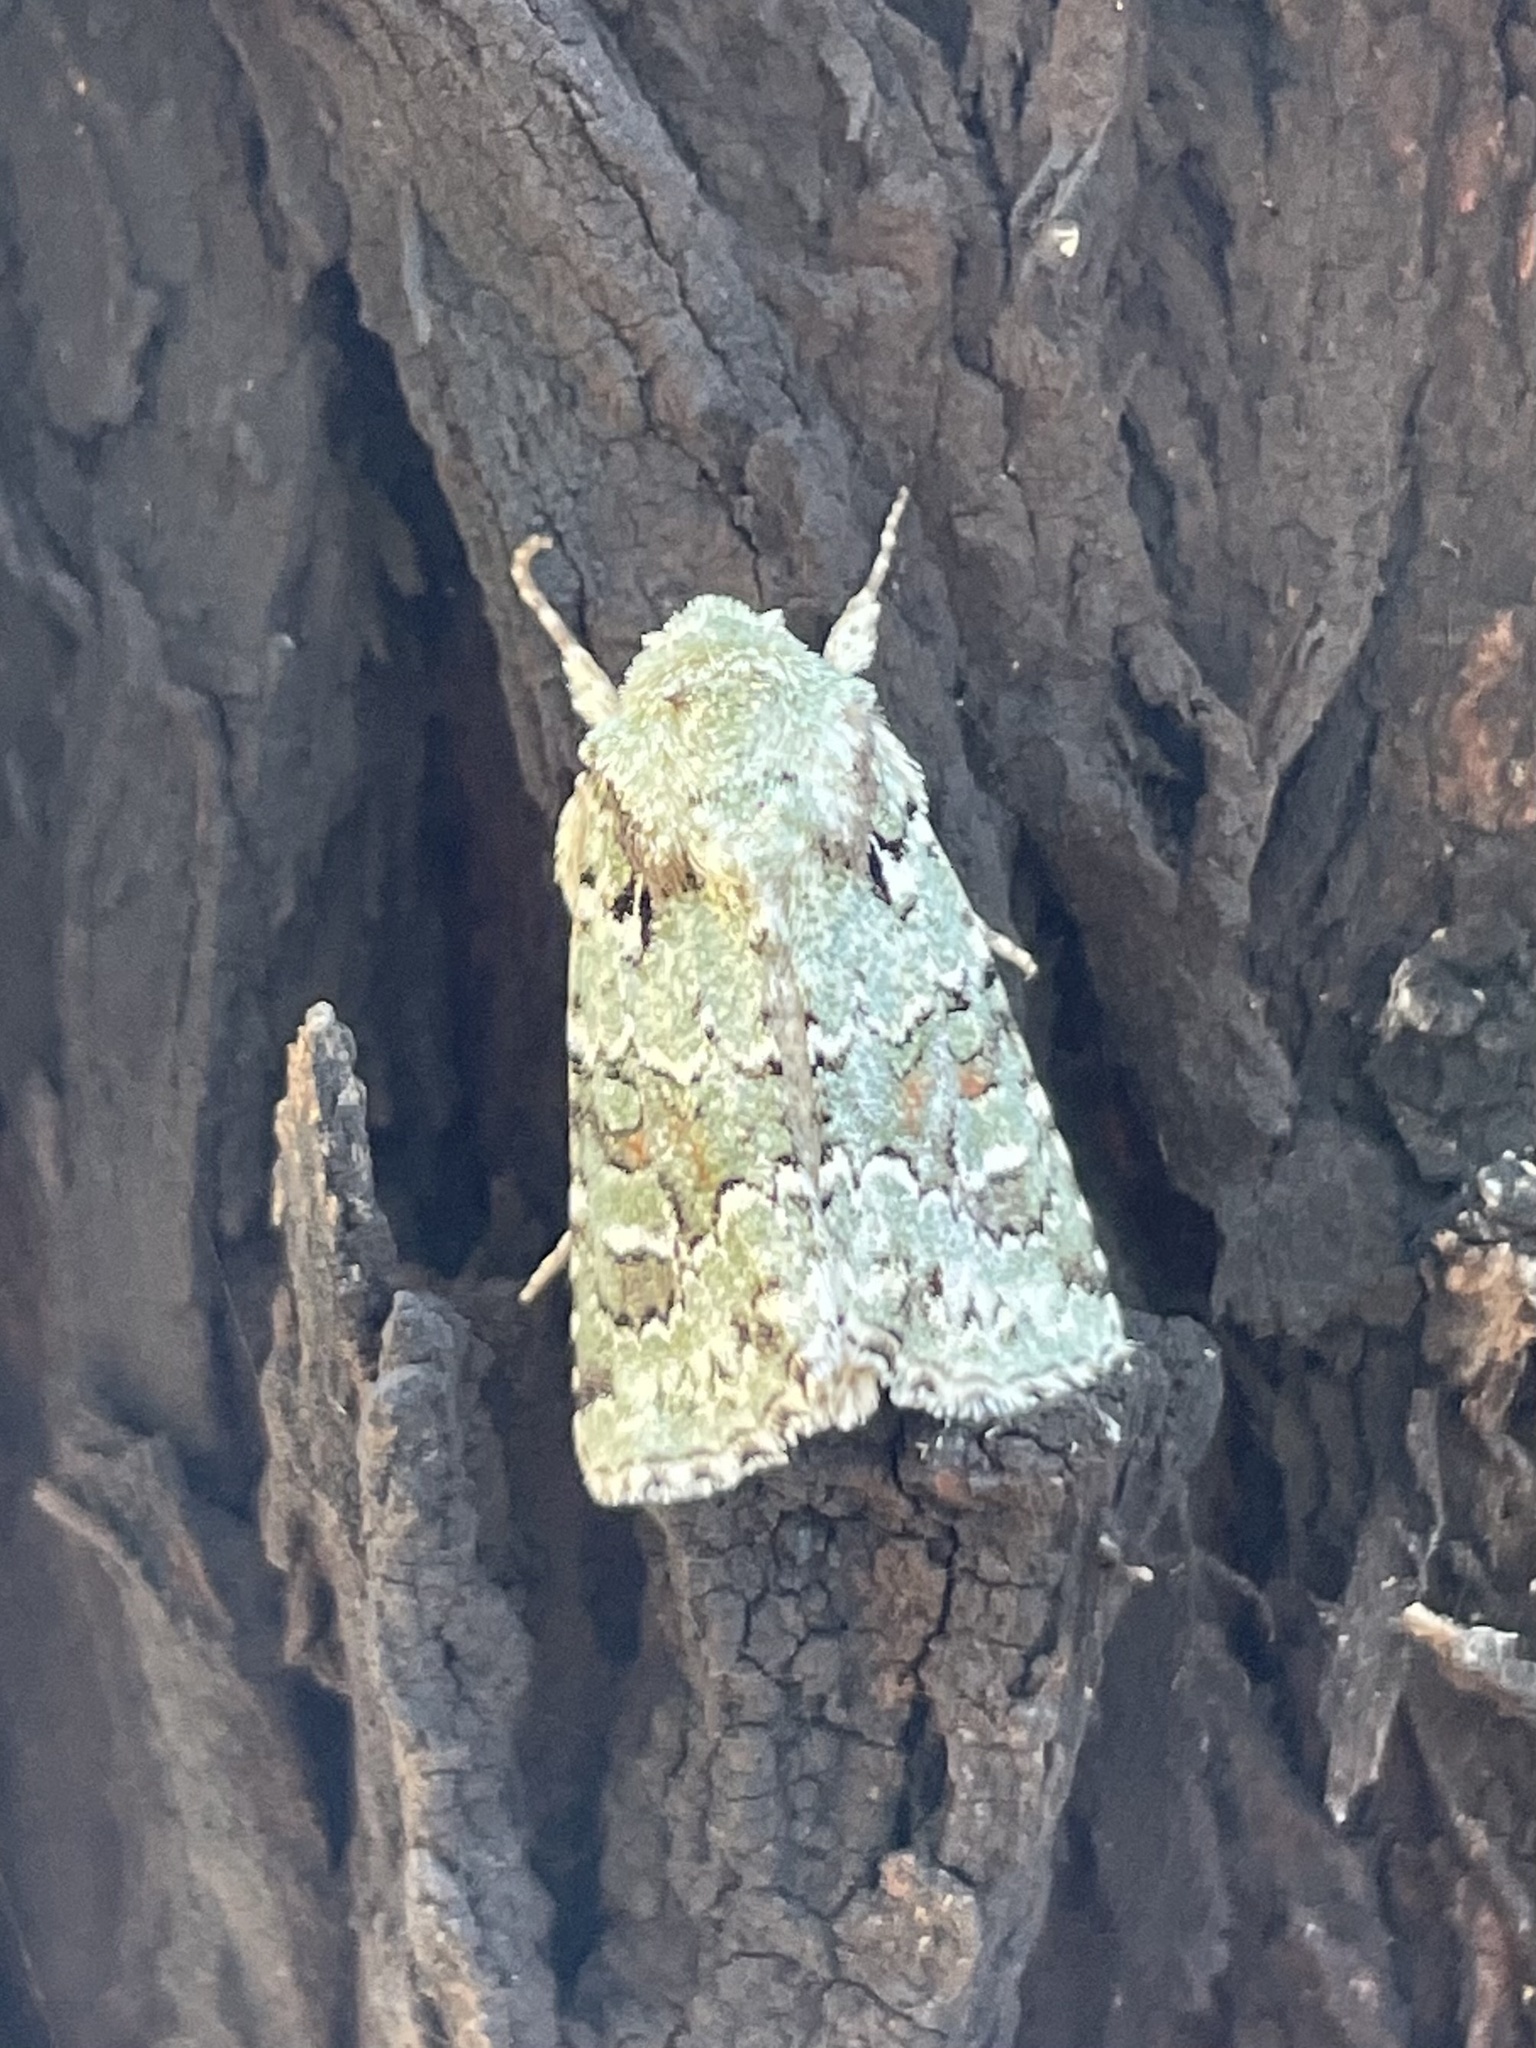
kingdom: Animalia
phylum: Arthropoda
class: Insecta
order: Lepidoptera
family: Noctuidae
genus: Lacinipolia
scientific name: Lacinipolia laudabilis
